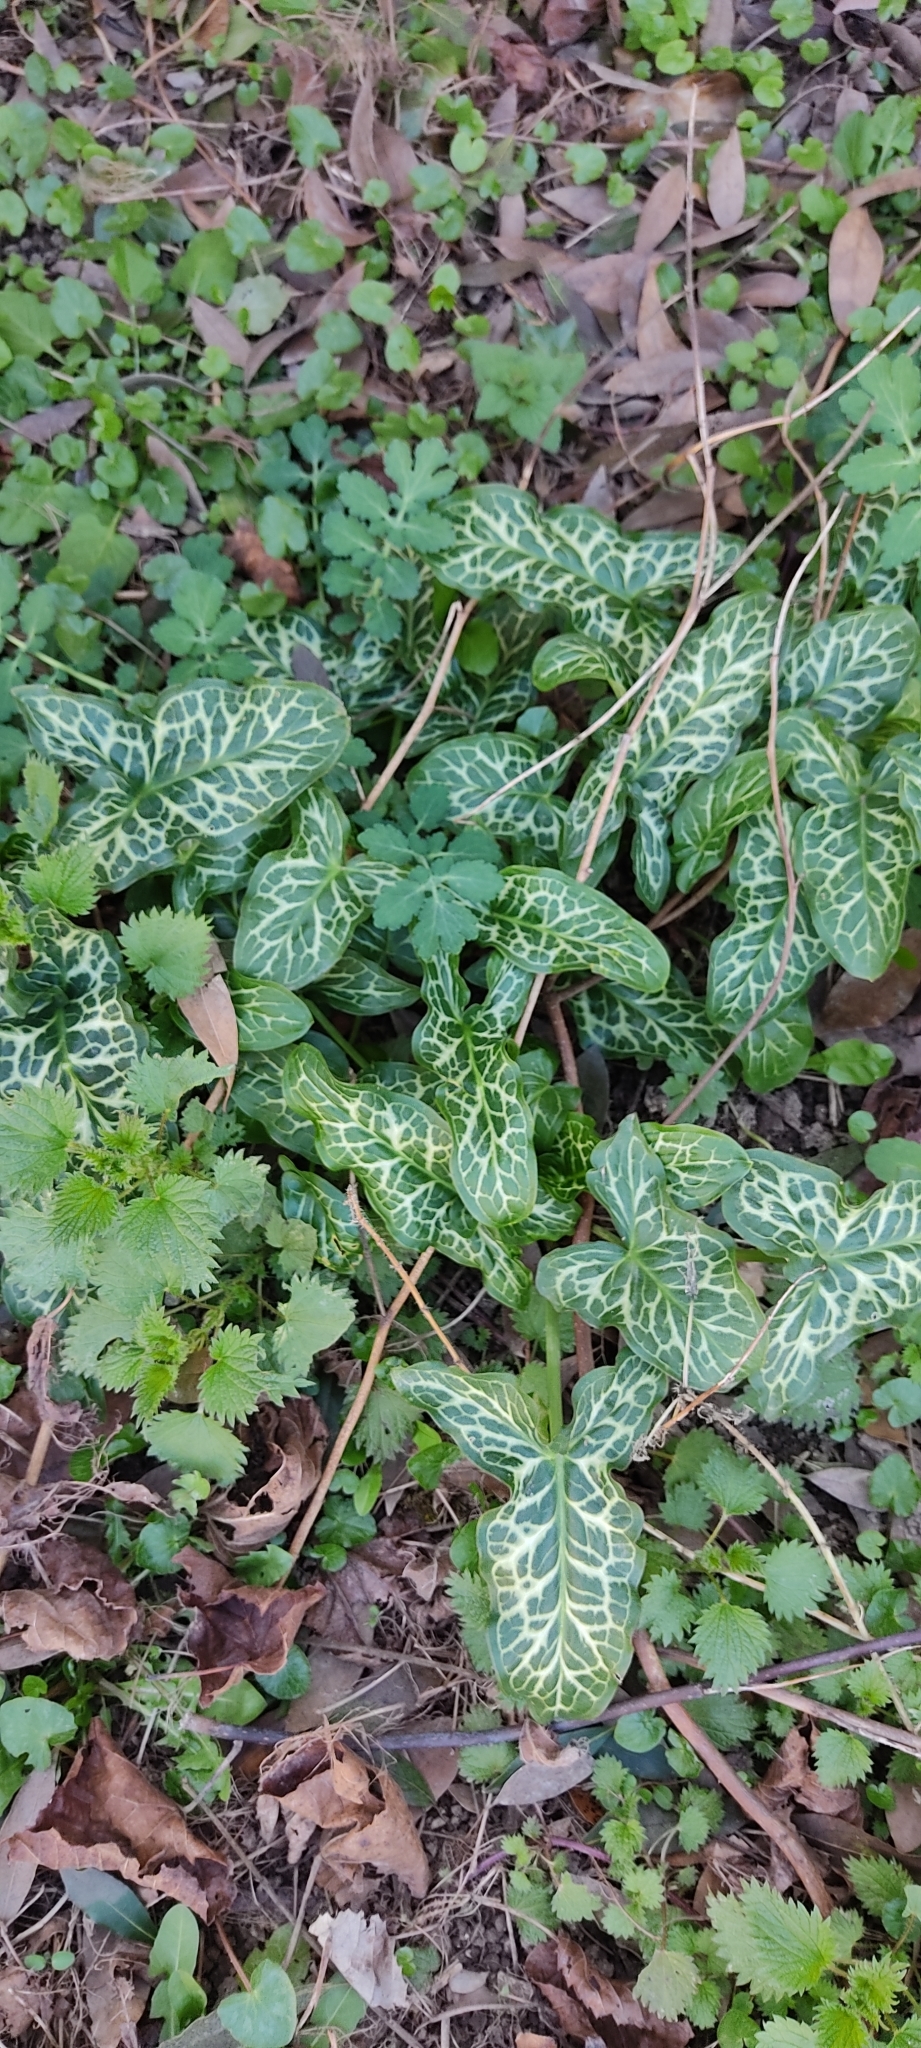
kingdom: Plantae
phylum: Tracheophyta
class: Liliopsida
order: Alismatales
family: Araceae
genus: Arum
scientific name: Arum italicum
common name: Italian lords-and-ladies
